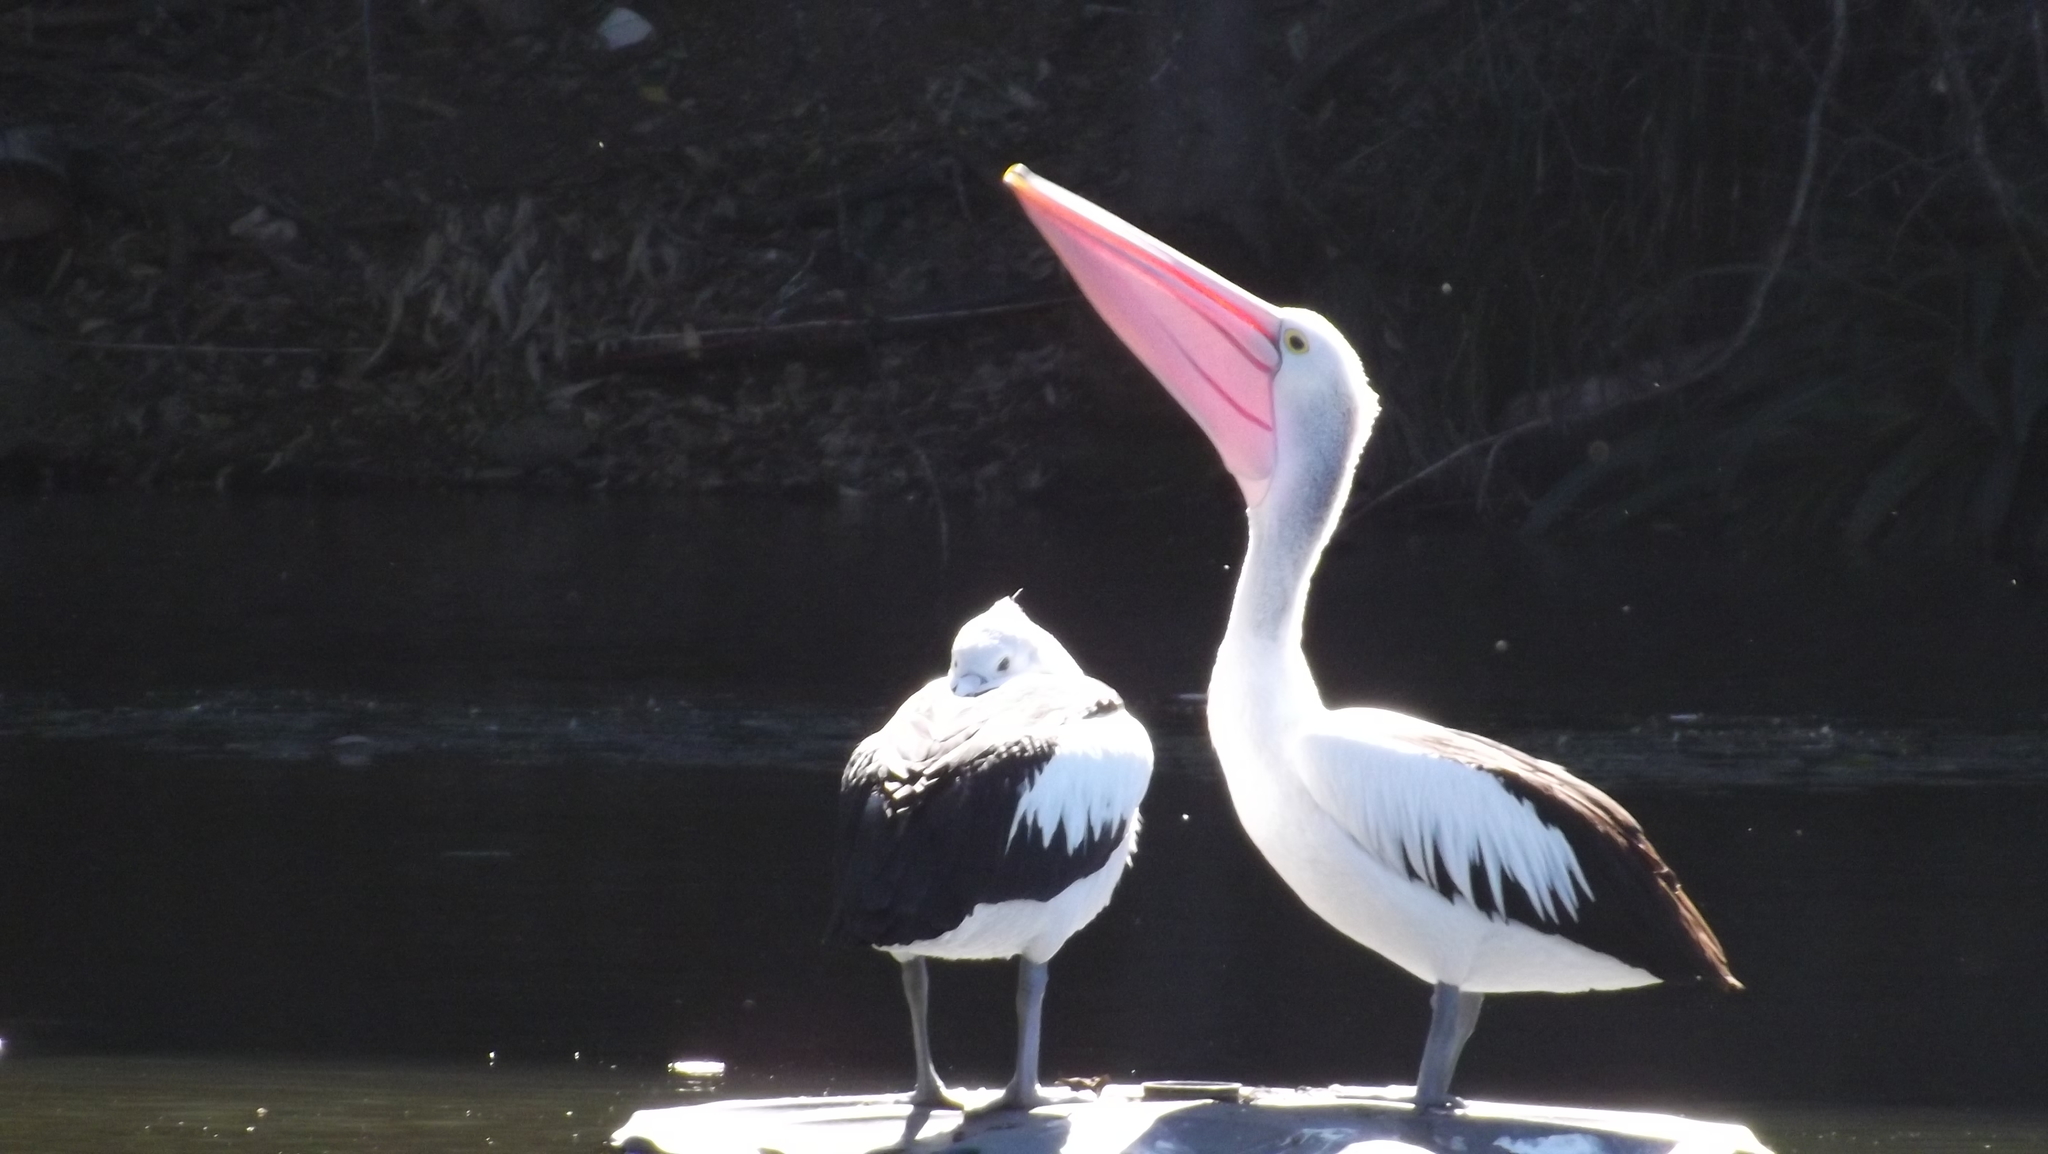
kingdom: Animalia
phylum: Chordata
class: Aves
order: Pelecaniformes
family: Pelecanidae
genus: Pelecanus
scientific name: Pelecanus conspicillatus
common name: Australian pelican
